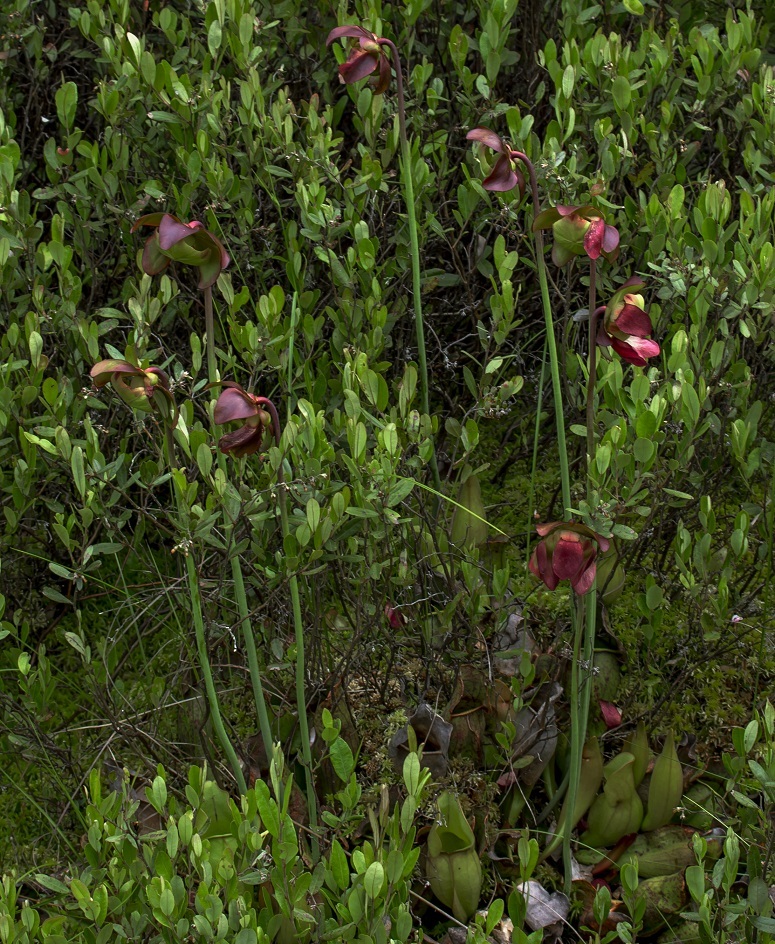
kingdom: Plantae
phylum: Tracheophyta
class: Magnoliopsida
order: Ericales
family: Sarraceniaceae
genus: Sarracenia
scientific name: Sarracenia purpurea
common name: Pitcherplant
